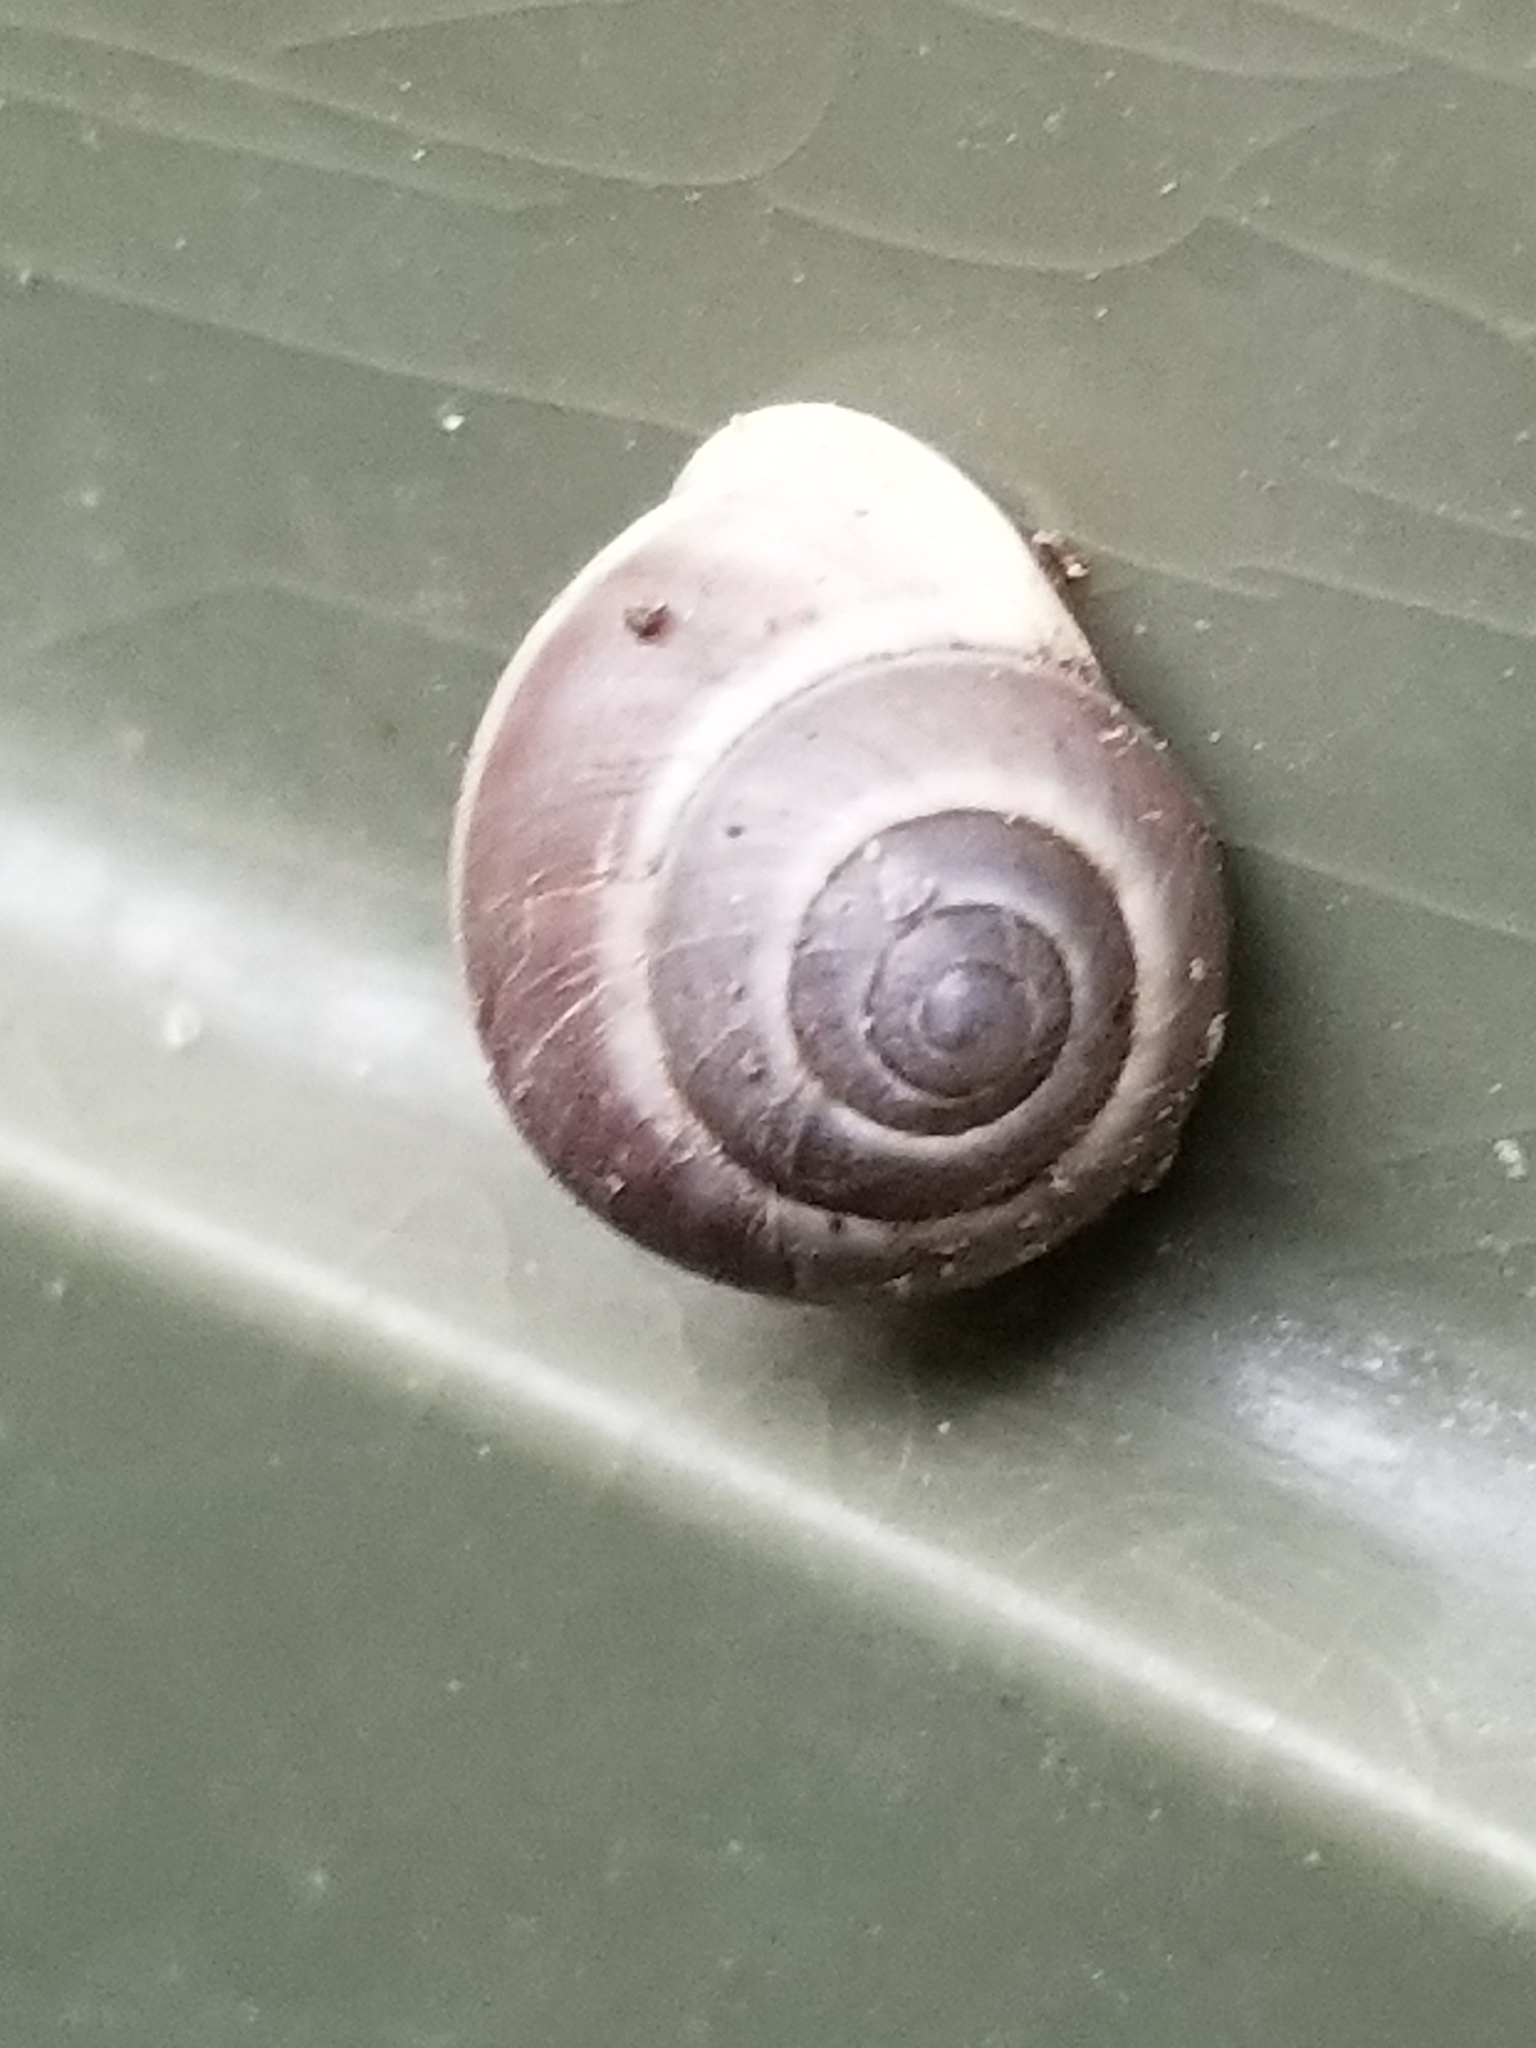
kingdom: Animalia
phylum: Mollusca
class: Gastropoda
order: Cycloneritida
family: Helicinidae
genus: Helicina
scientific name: Helicina orbiculata
